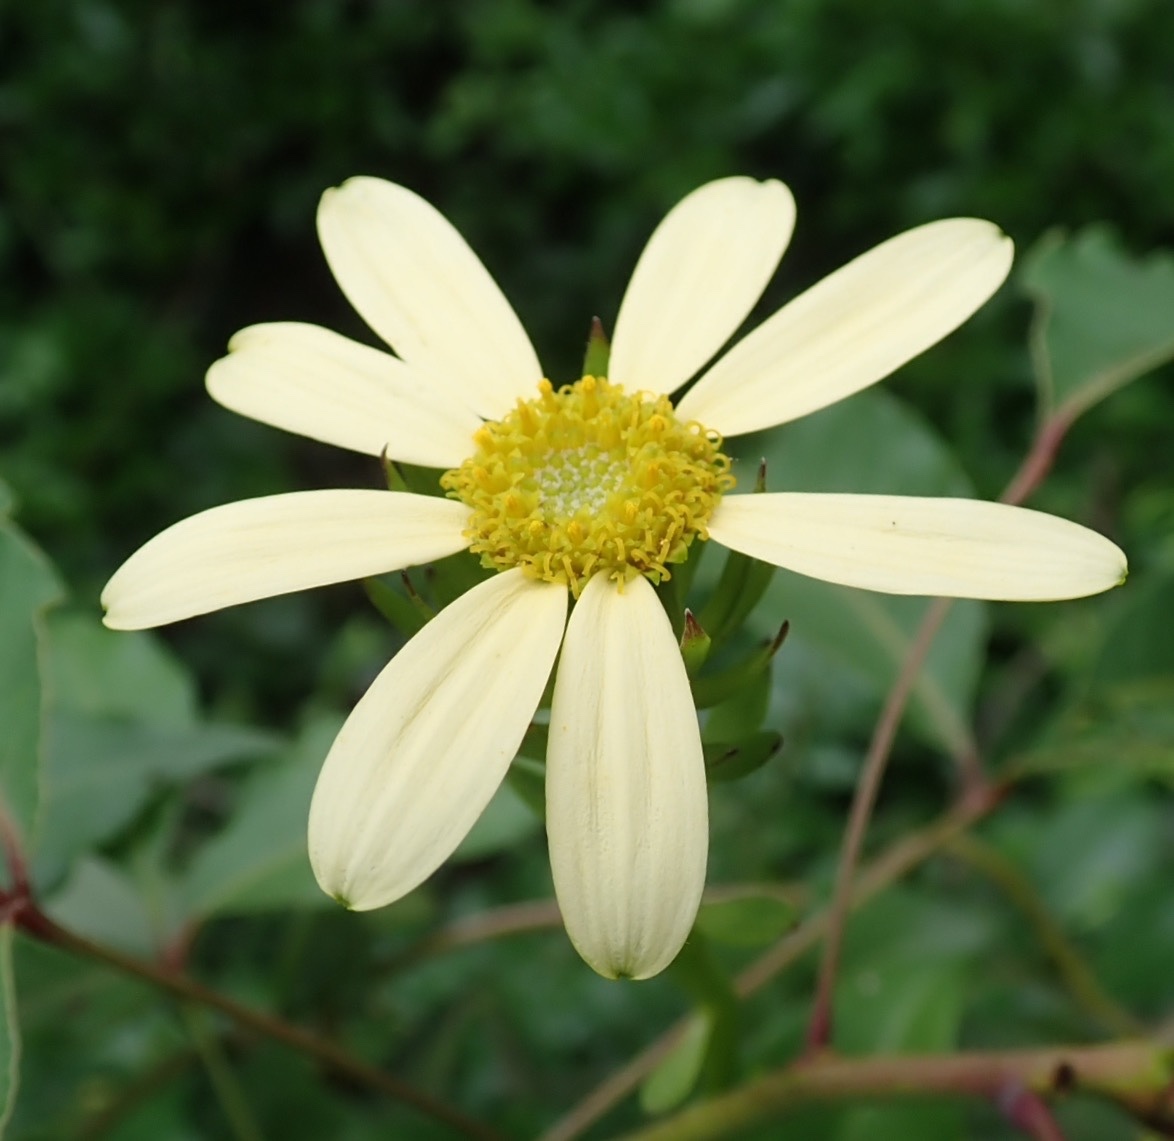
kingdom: Plantae
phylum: Tracheophyta
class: Magnoliopsida
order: Asterales
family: Asteraceae
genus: Senecio
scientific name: Senecio macroglossus
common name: Natal-ivy
